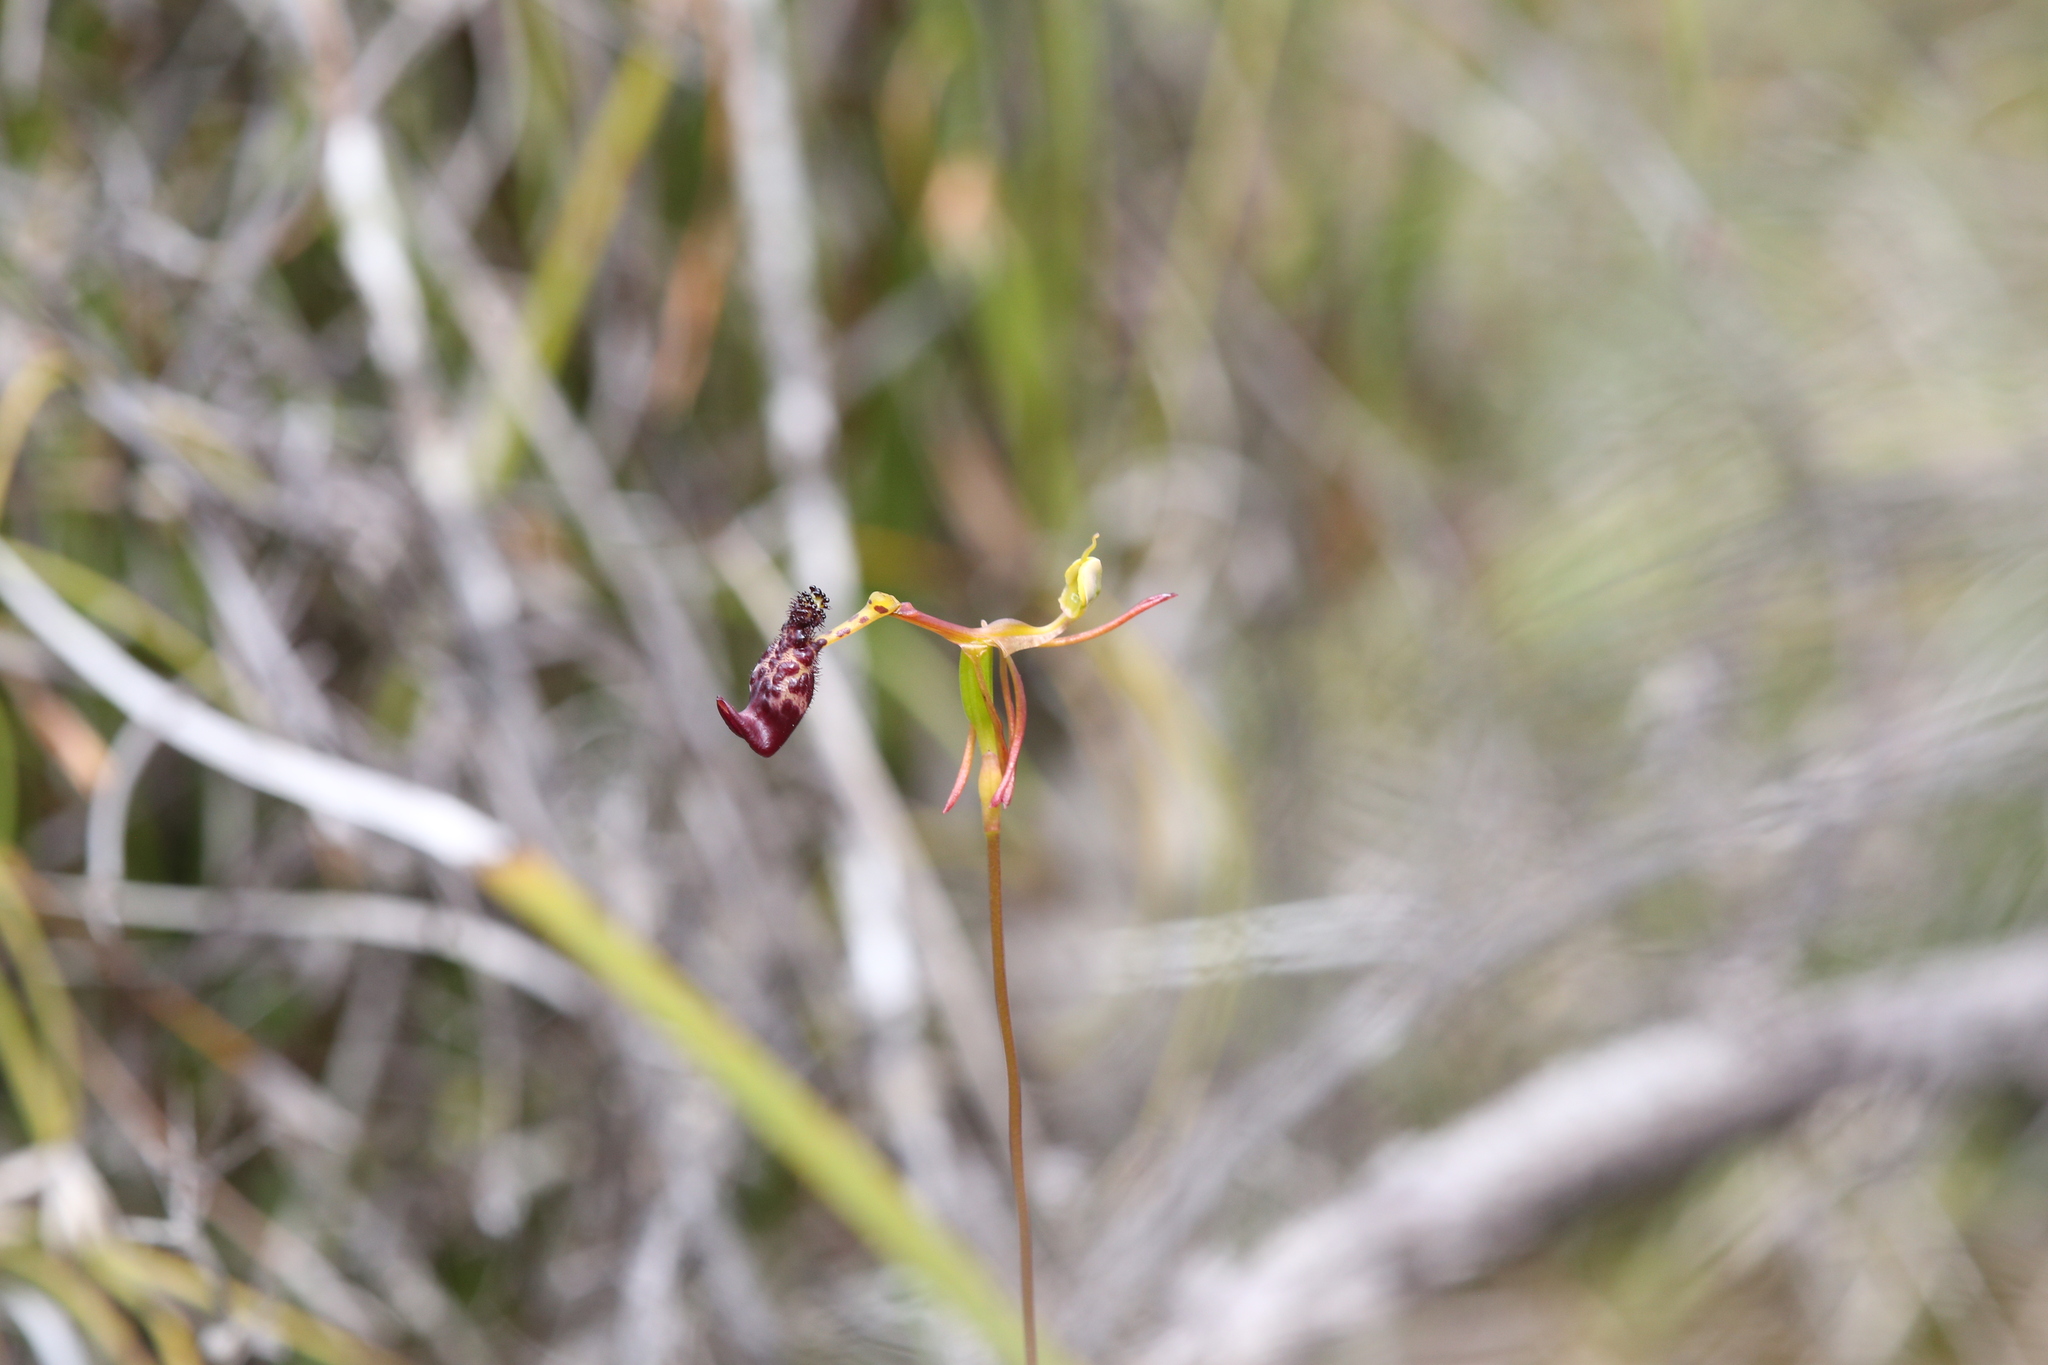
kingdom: Plantae
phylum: Tracheophyta
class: Liliopsida
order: Asparagales
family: Orchidaceae
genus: Drakaea
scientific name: Drakaea livida
